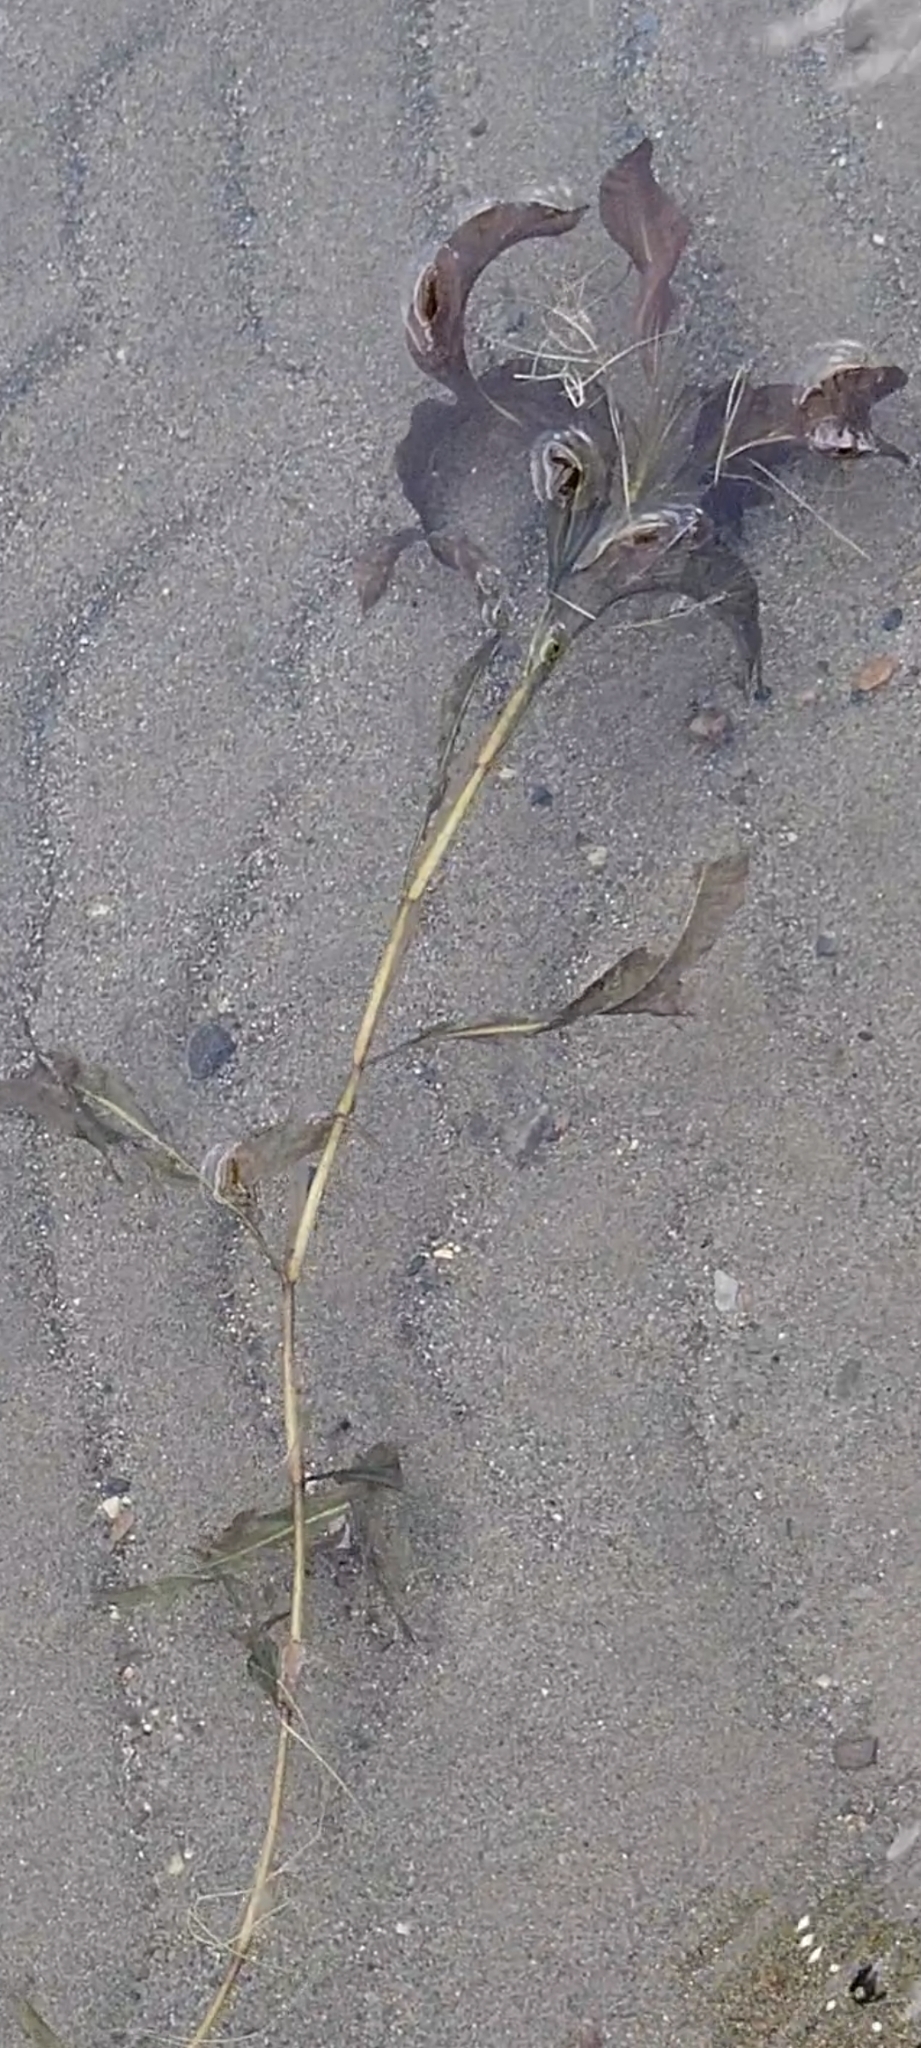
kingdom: Plantae
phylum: Tracheophyta
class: Liliopsida
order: Alismatales
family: Potamogetonaceae
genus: Potamogeton
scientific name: Potamogeton amplifolius
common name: Broad-leaved pondweed
